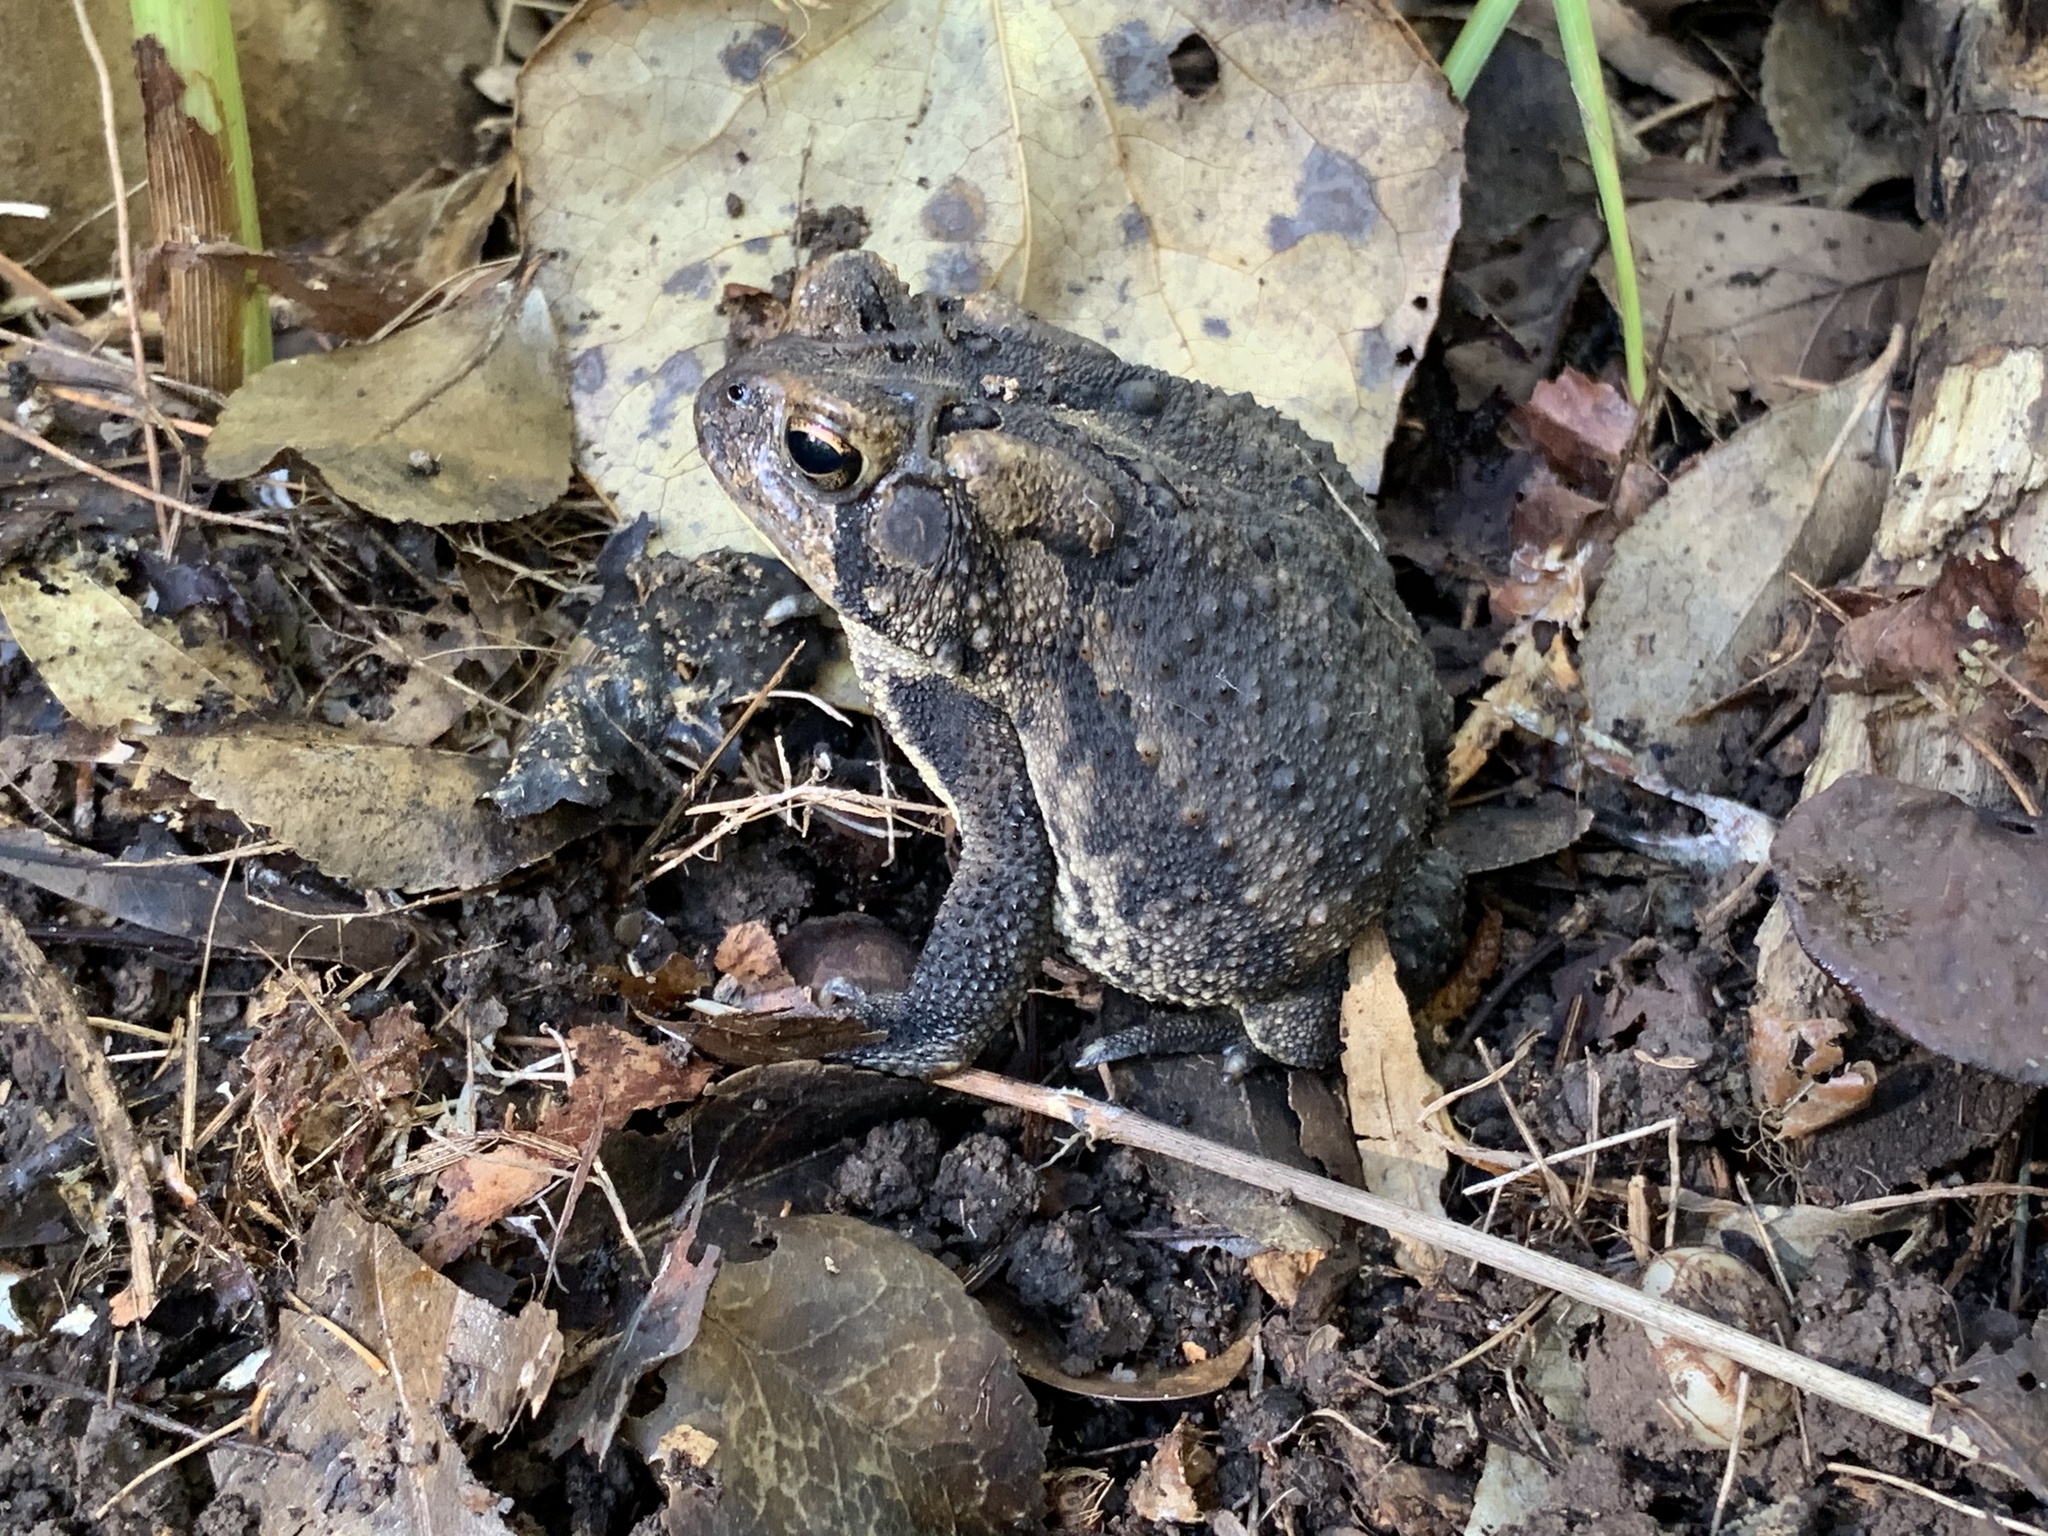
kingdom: Animalia
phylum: Chordata
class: Amphibia
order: Anura
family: Bufonidae
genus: Anaxyrus
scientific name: Anaxyrus americanus
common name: American toad
